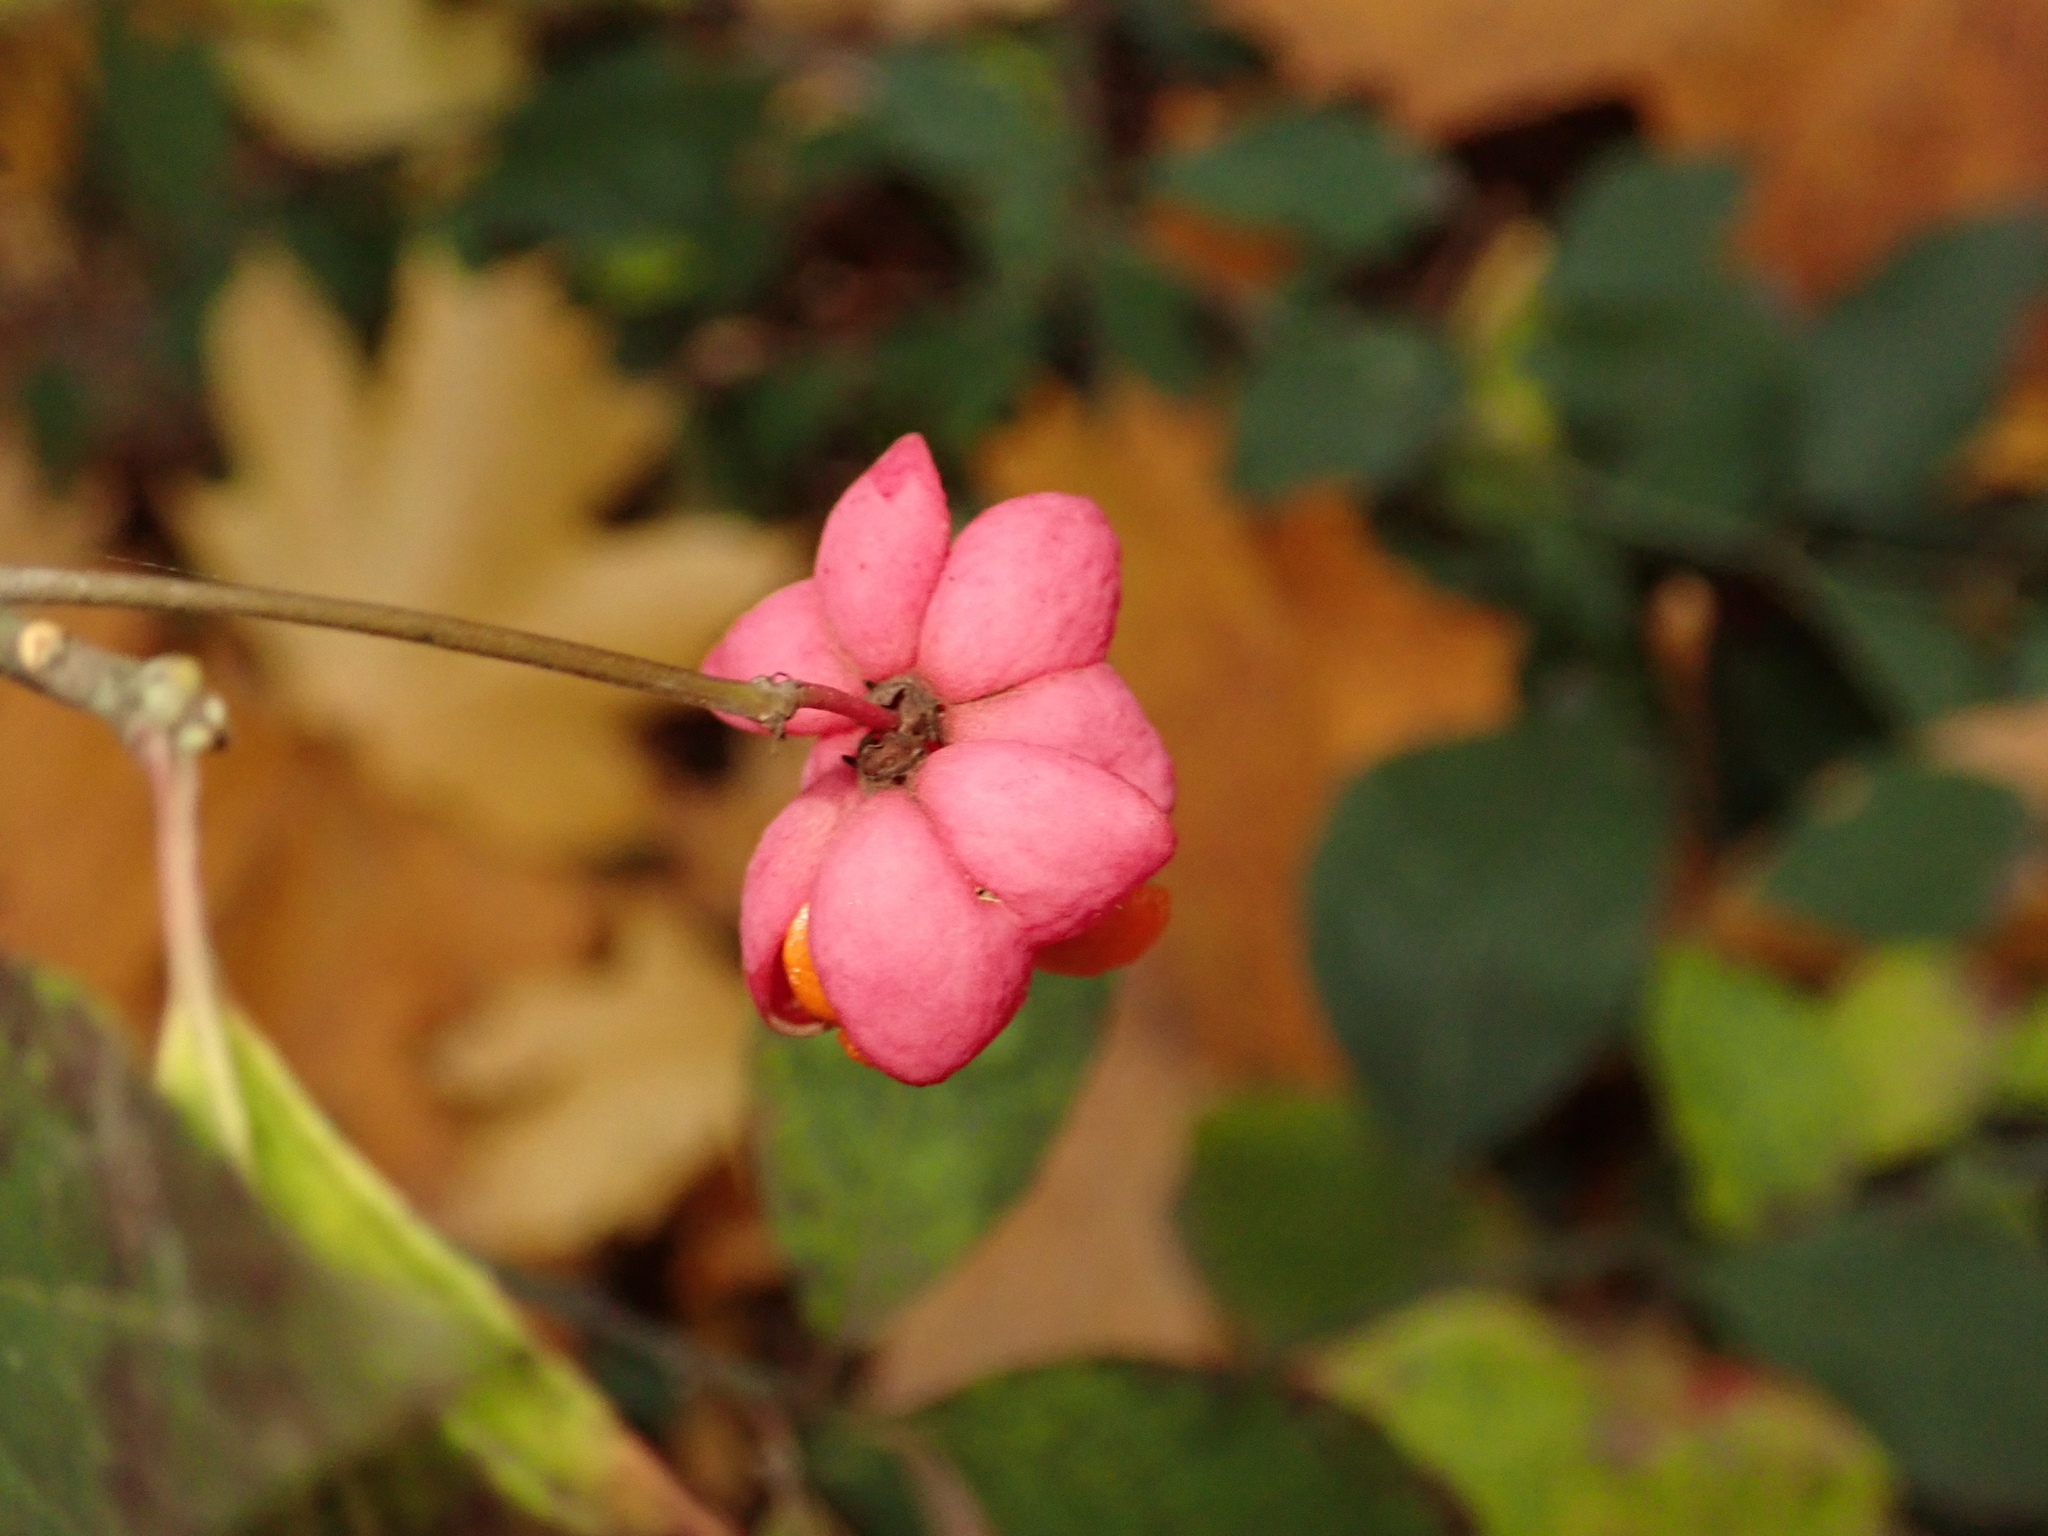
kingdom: Plantae
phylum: Tracheophyta
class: Magnoliopsida
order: Celastrales
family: Celastraceae
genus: Euonymus
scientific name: Euonymus europaeus
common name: Spindle
